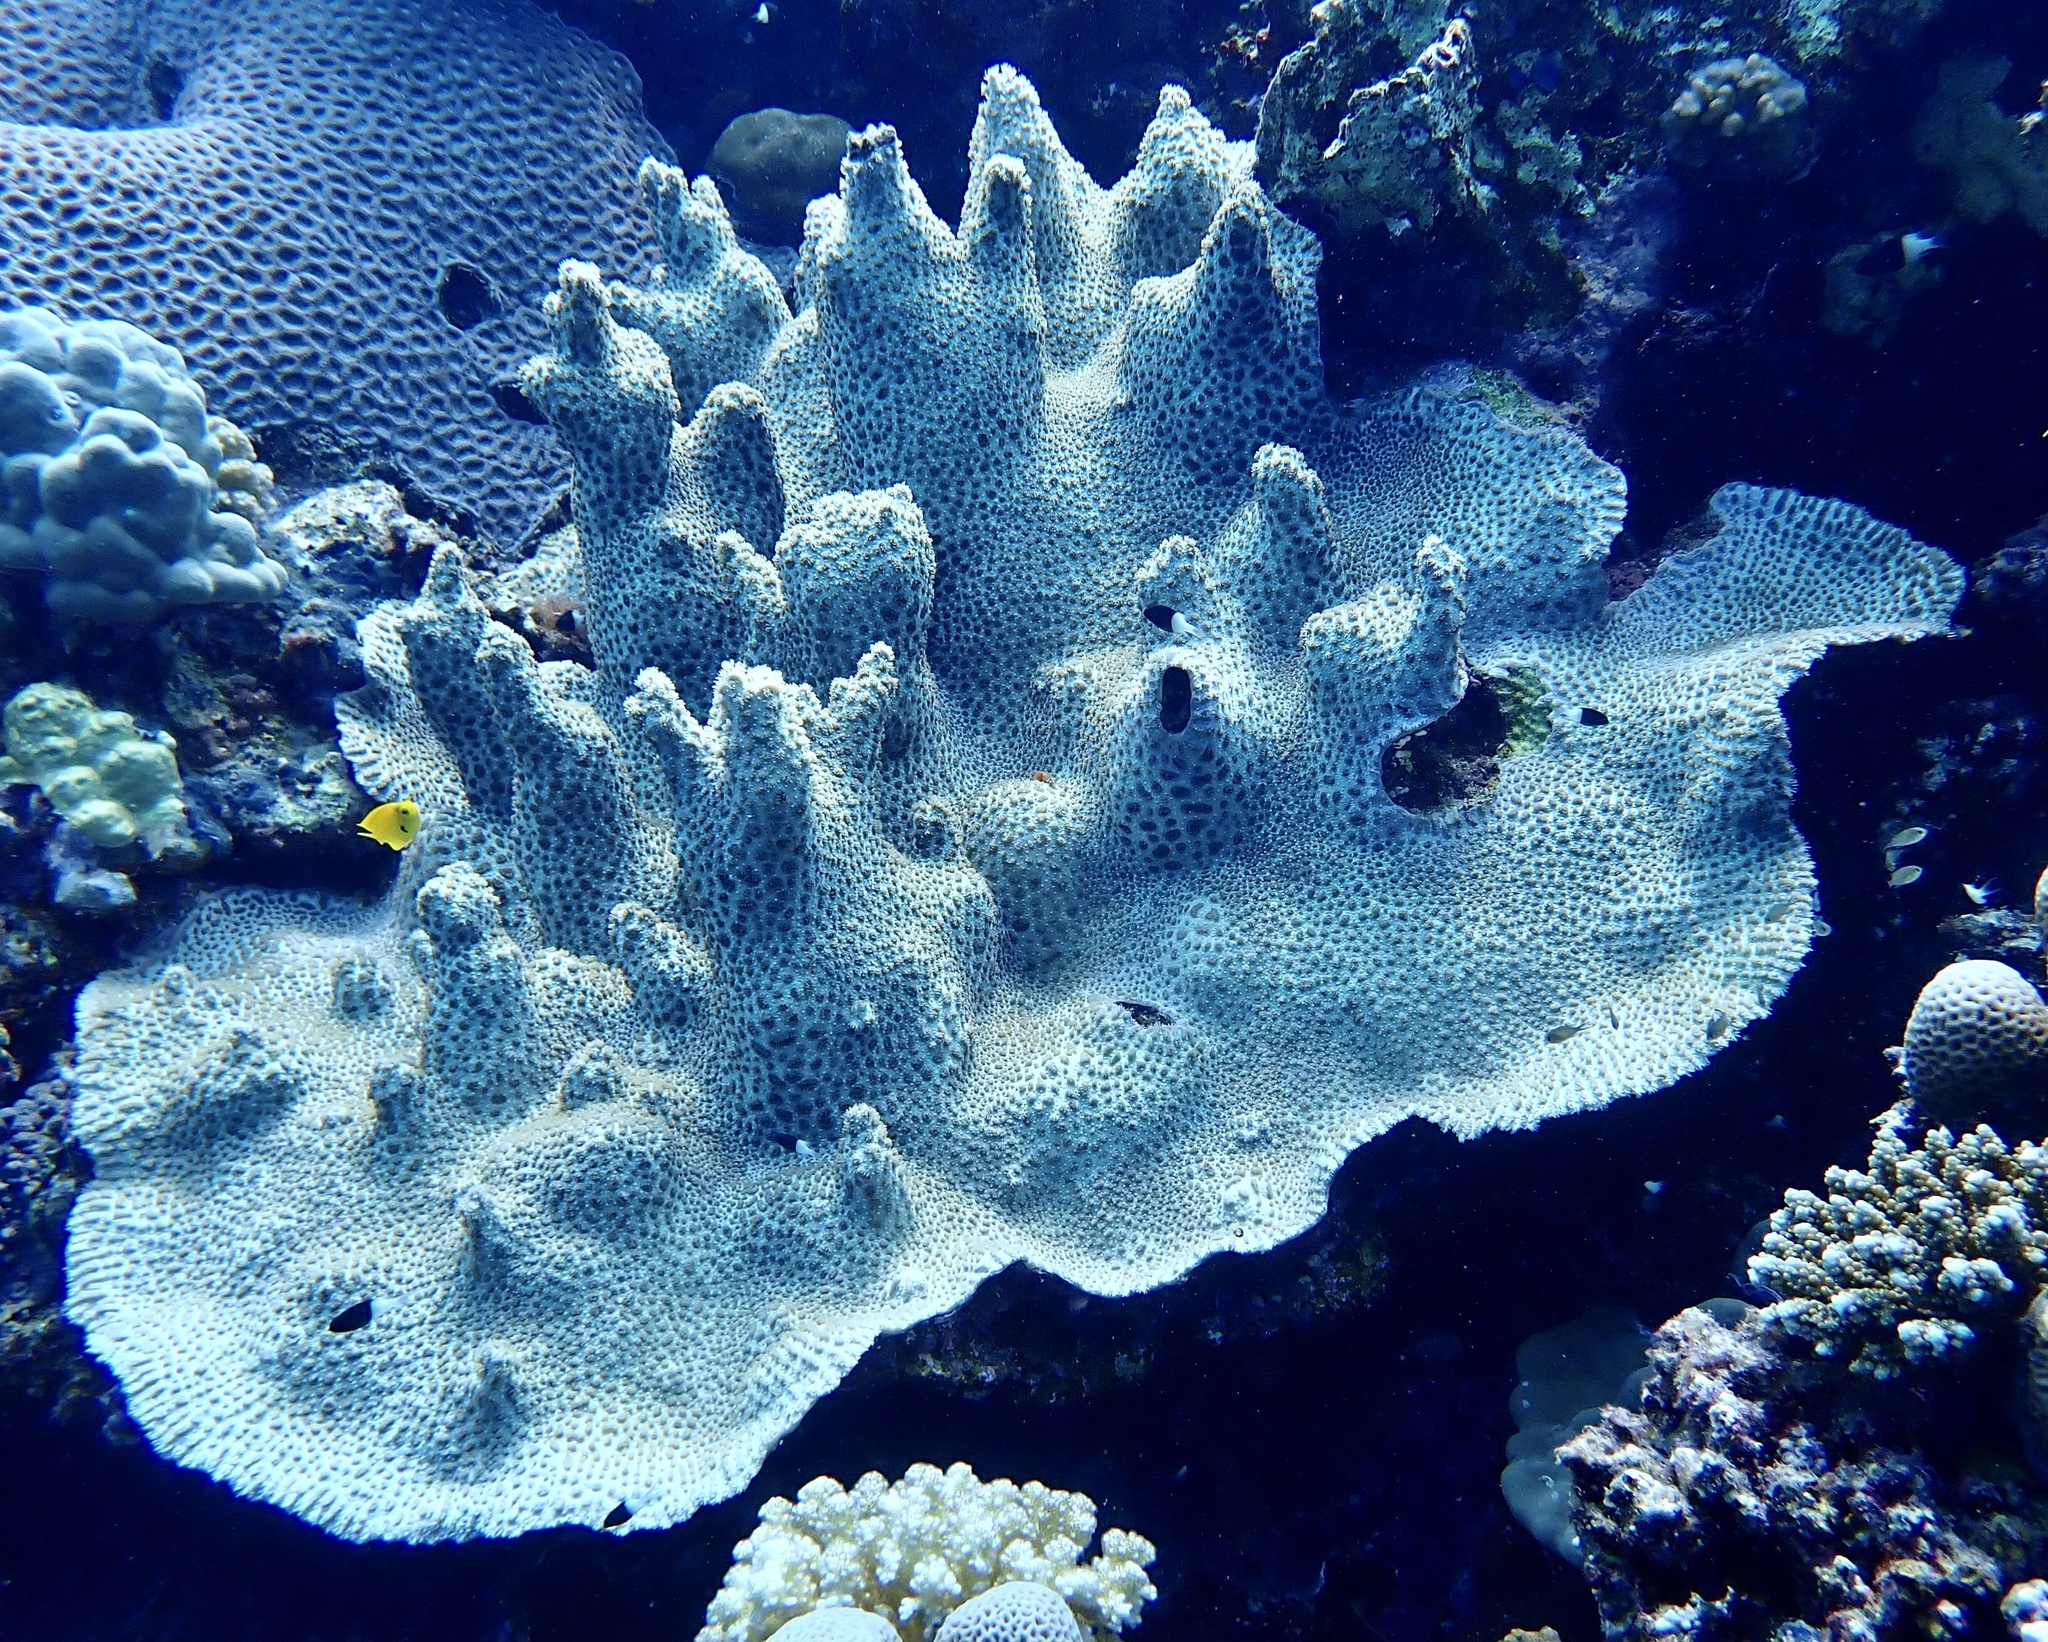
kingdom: Animalia
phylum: Cnidaria
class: Anthozoa
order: Scleractinia
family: Merulinidae
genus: Hydnophora
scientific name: Hydnophora exesa
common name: Spine coral
